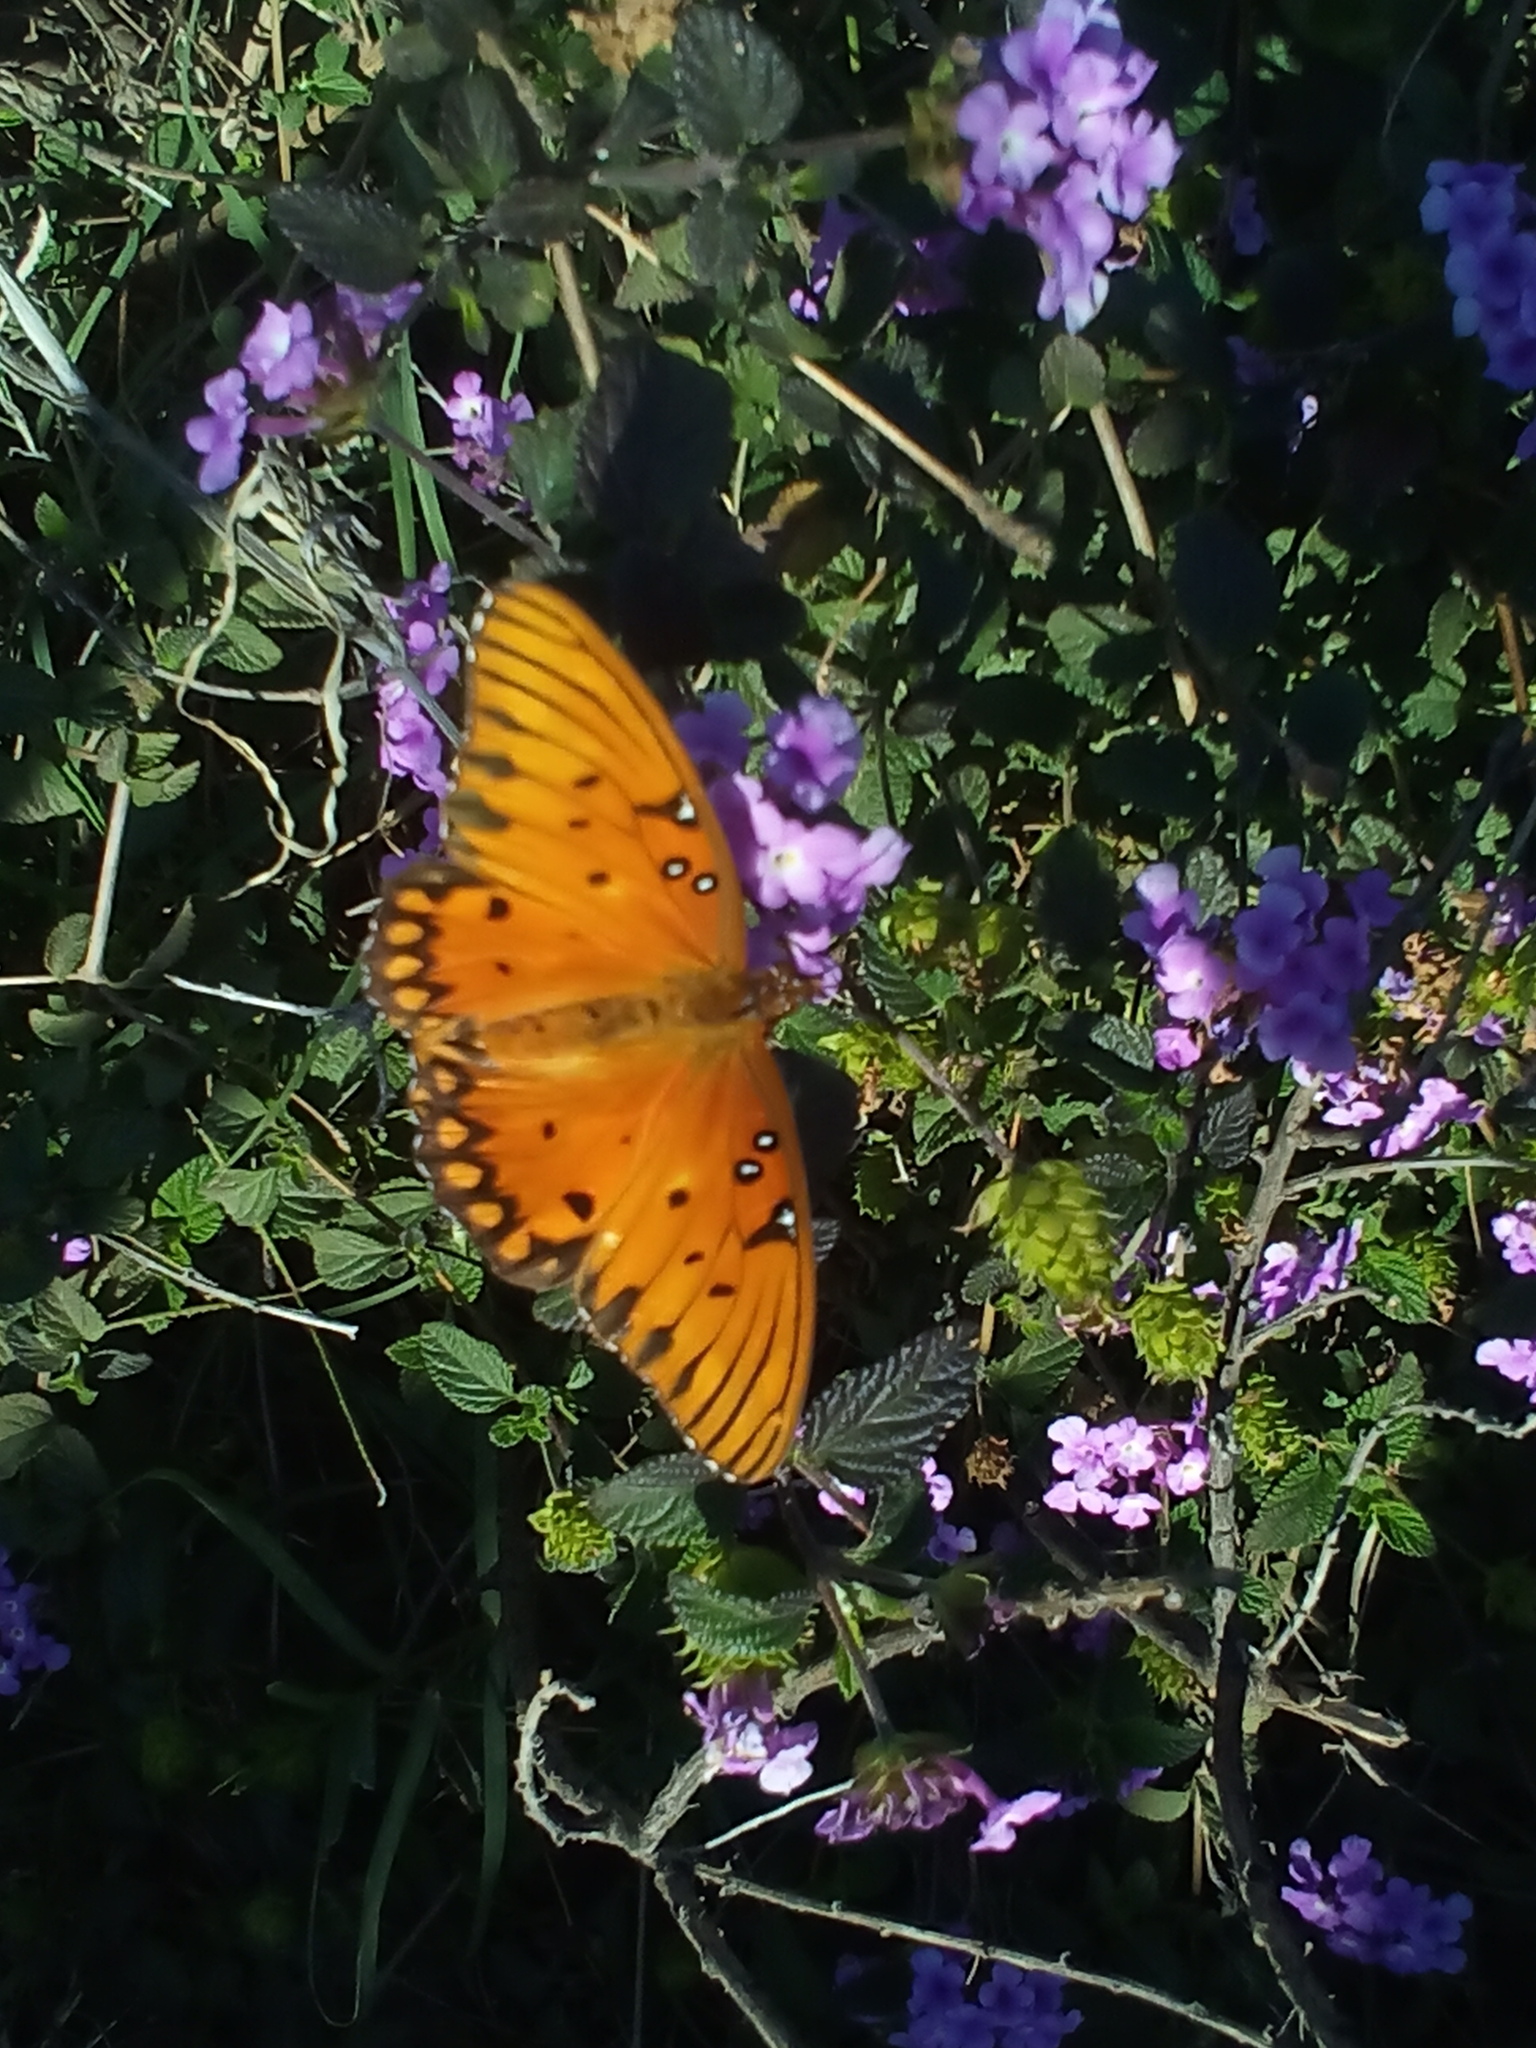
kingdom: Animalia
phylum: Arthropoda
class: Insecta
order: Lepidoptera
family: Nymphalidae
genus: Dione
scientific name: Dione vanillae
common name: Gulf fritillary
